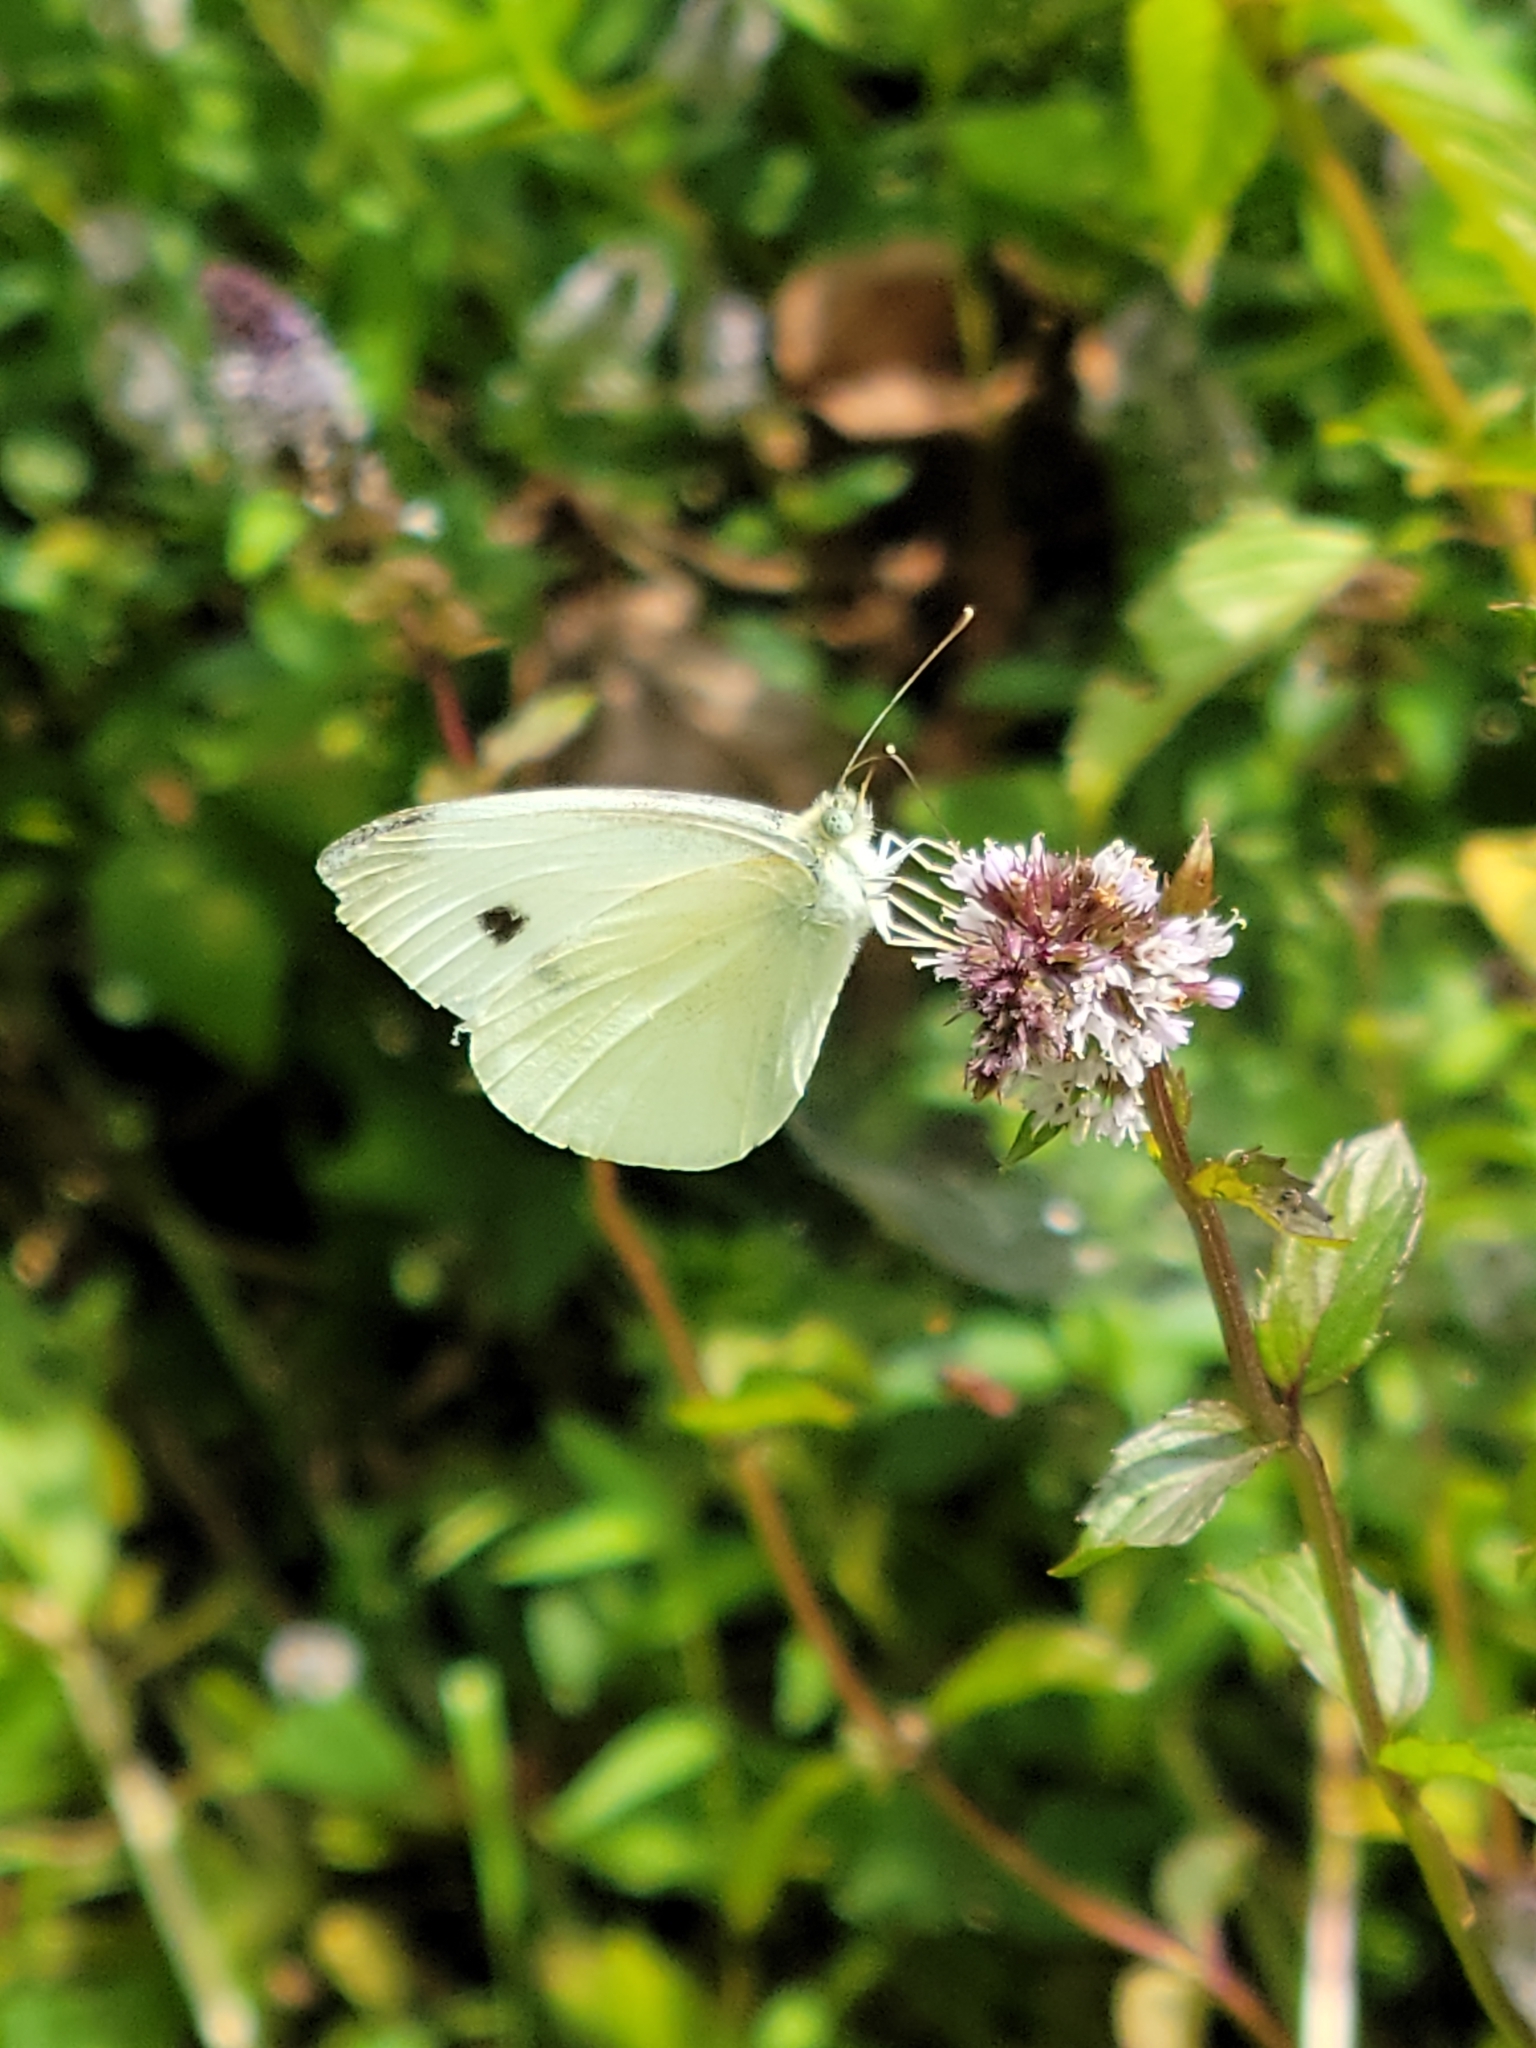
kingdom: Animalia
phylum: Arthropoda
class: Insecta
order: Lepidoptera
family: Pieridae
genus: Pieris
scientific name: Pieris rapae
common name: Small white
